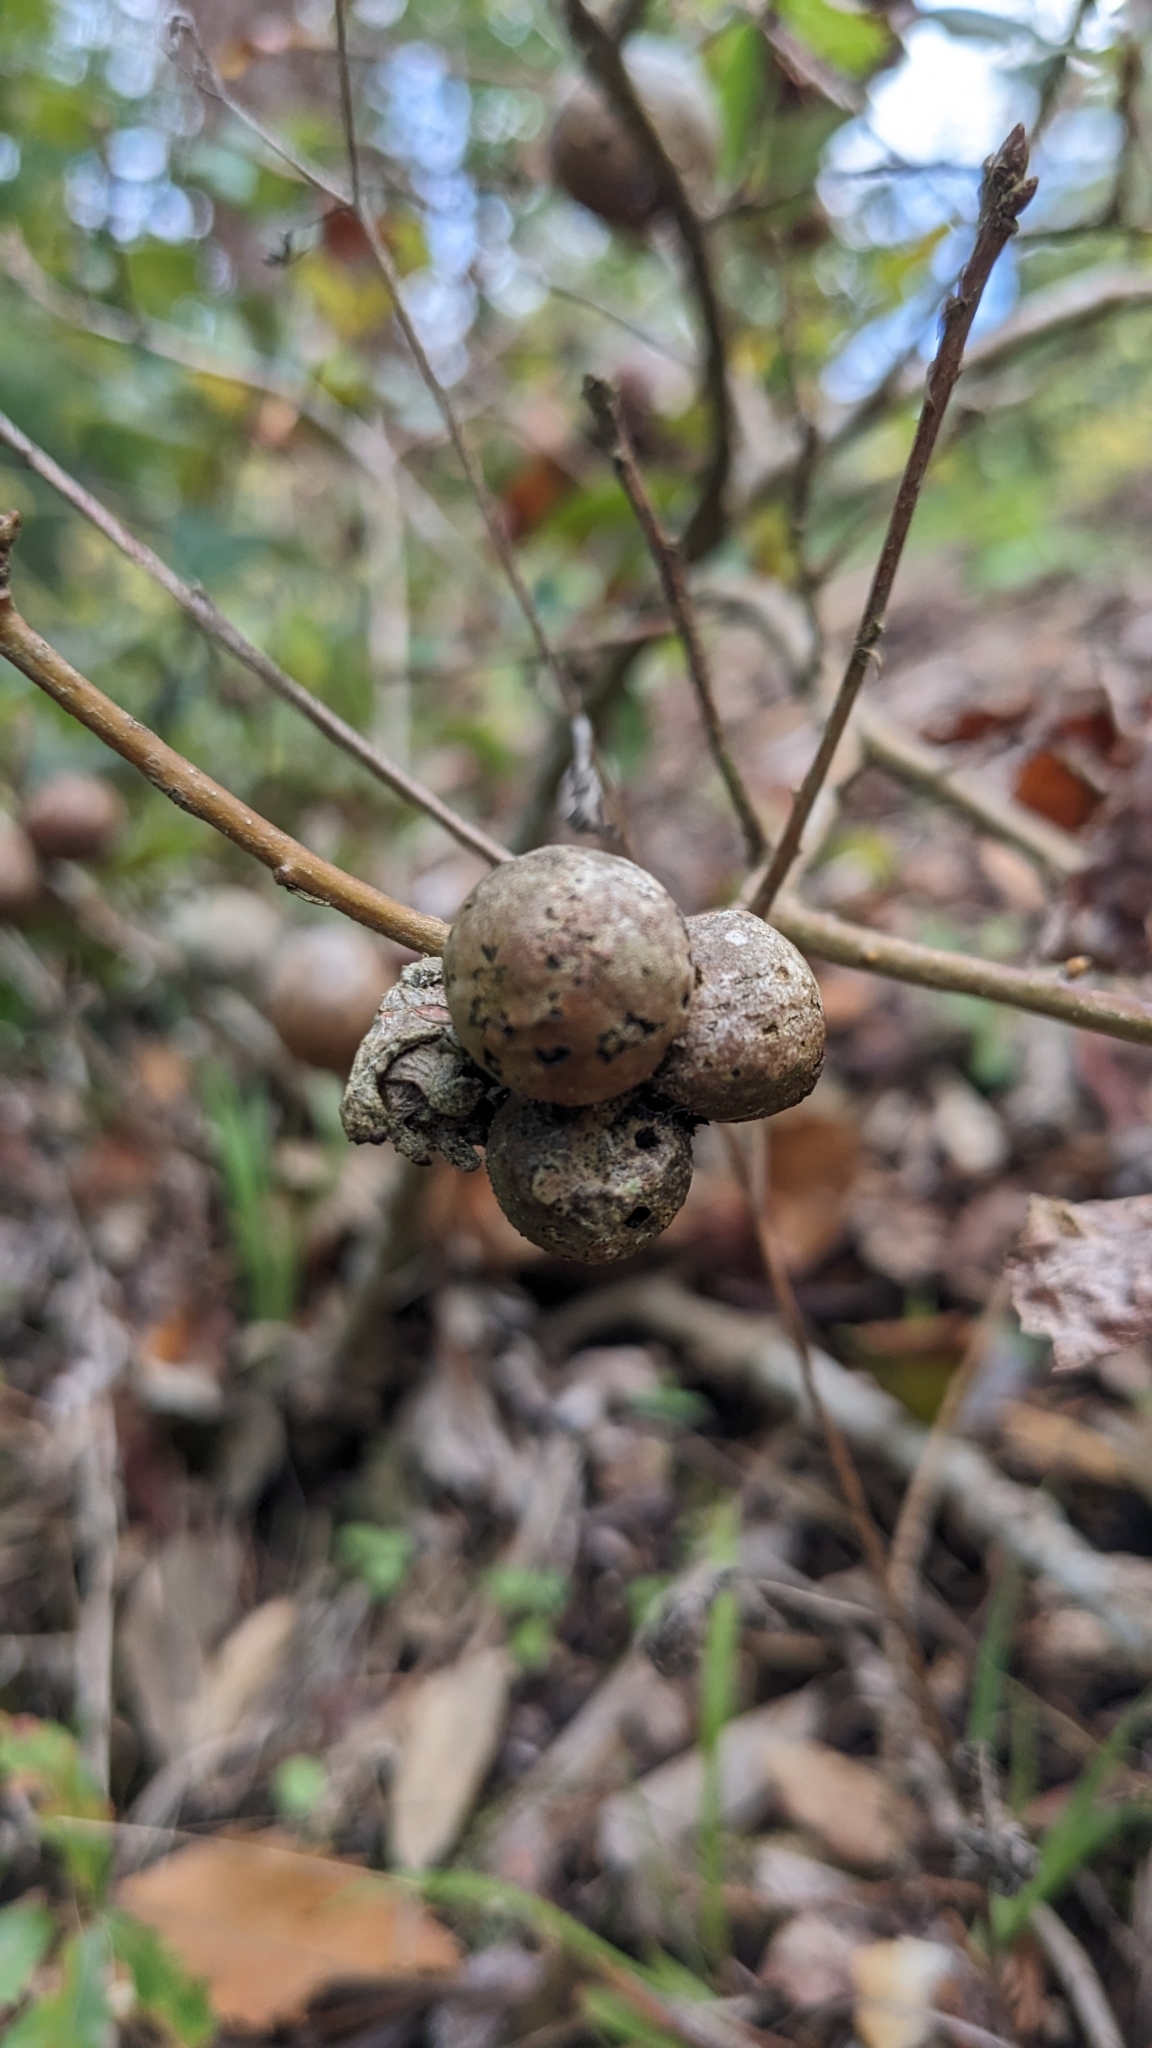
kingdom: Animalia
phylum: Arthropoda
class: Insecta
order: Hymenoptera
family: Cynipidae
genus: Andricus
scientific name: Andricus quercustozae
